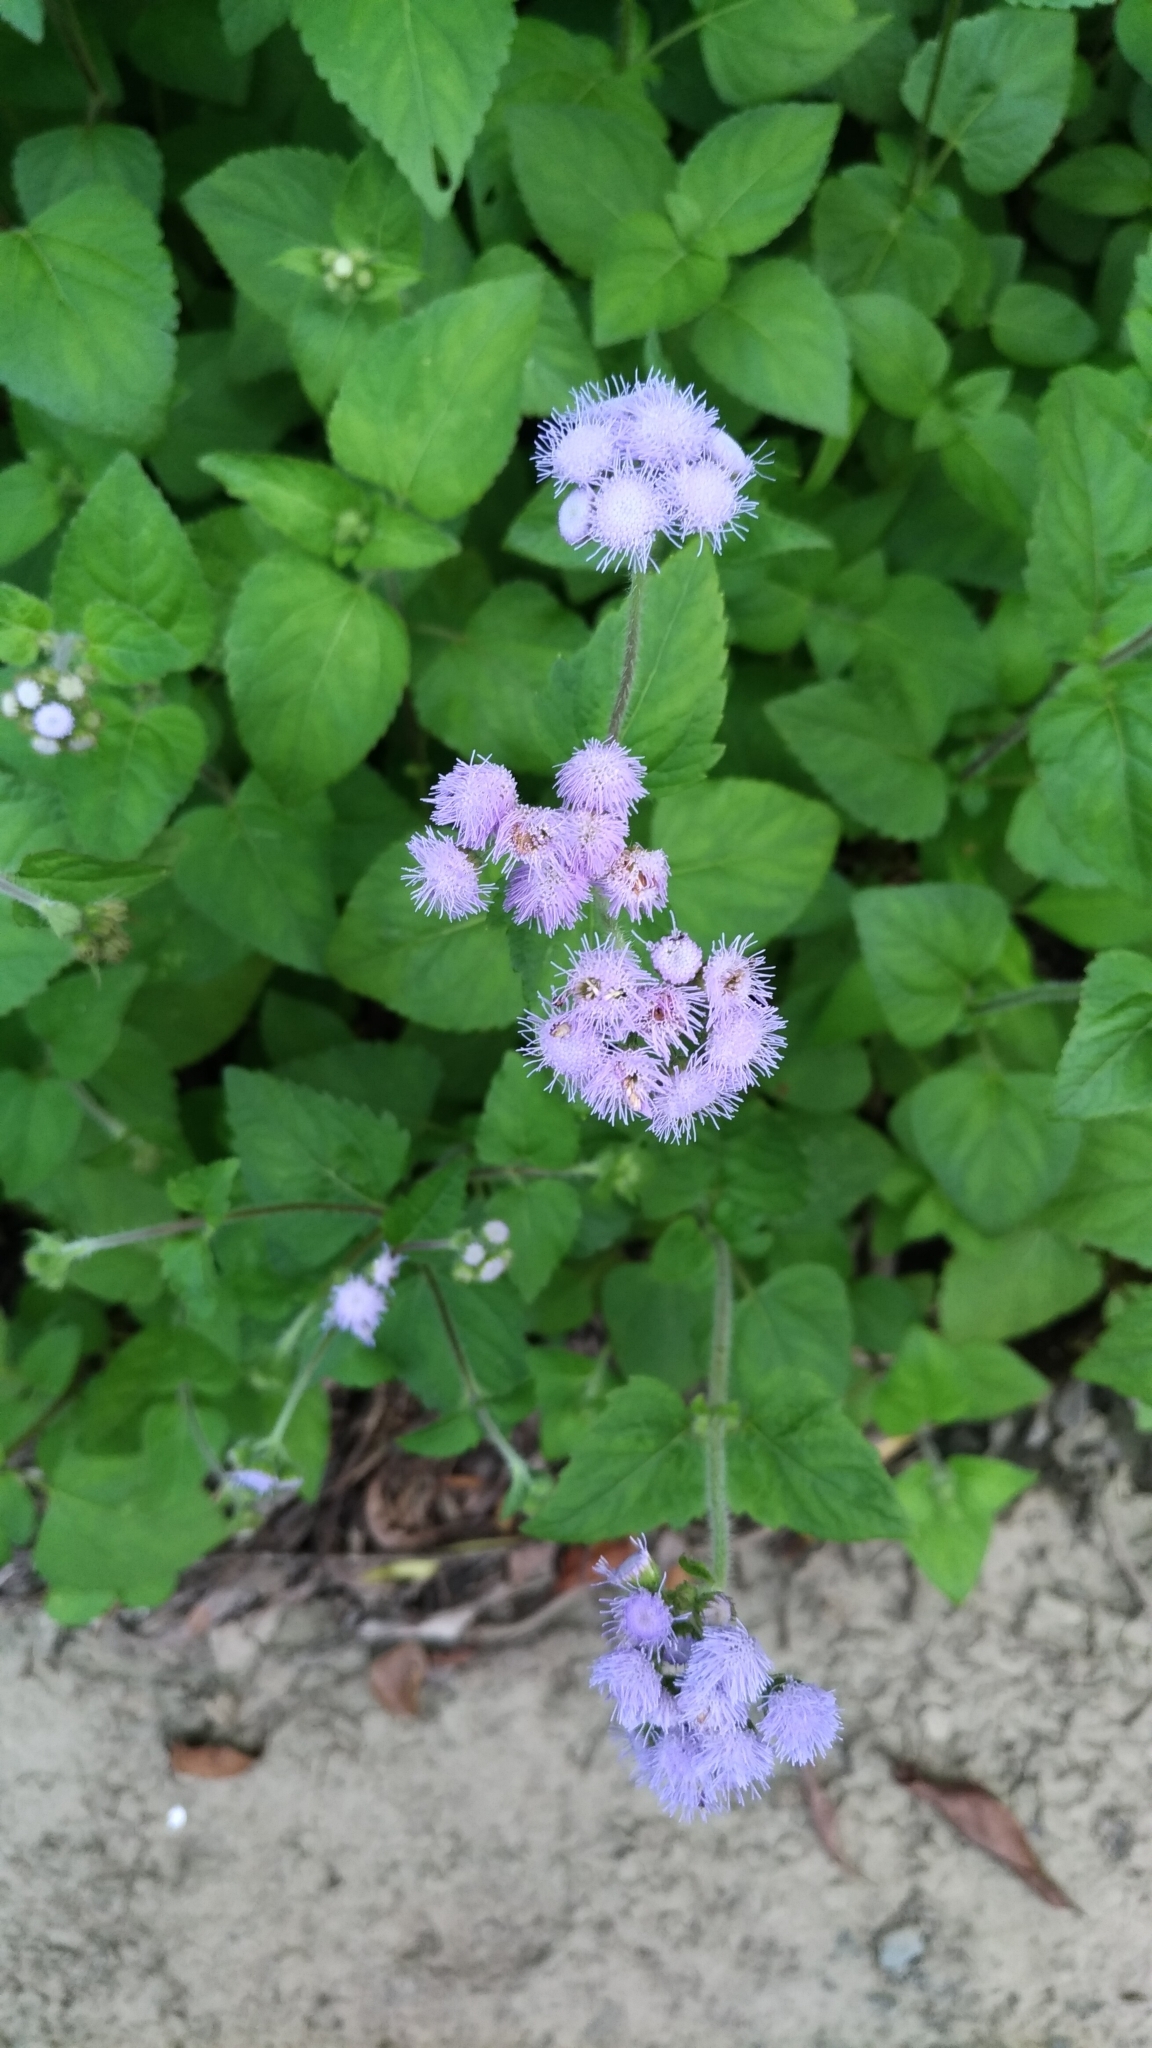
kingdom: Plantae
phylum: Tracheophyta
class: Magnoliopsida
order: Asterales
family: Asteraceae
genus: Ageratum
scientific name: Ageratum houstonianum
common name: Bluemink
